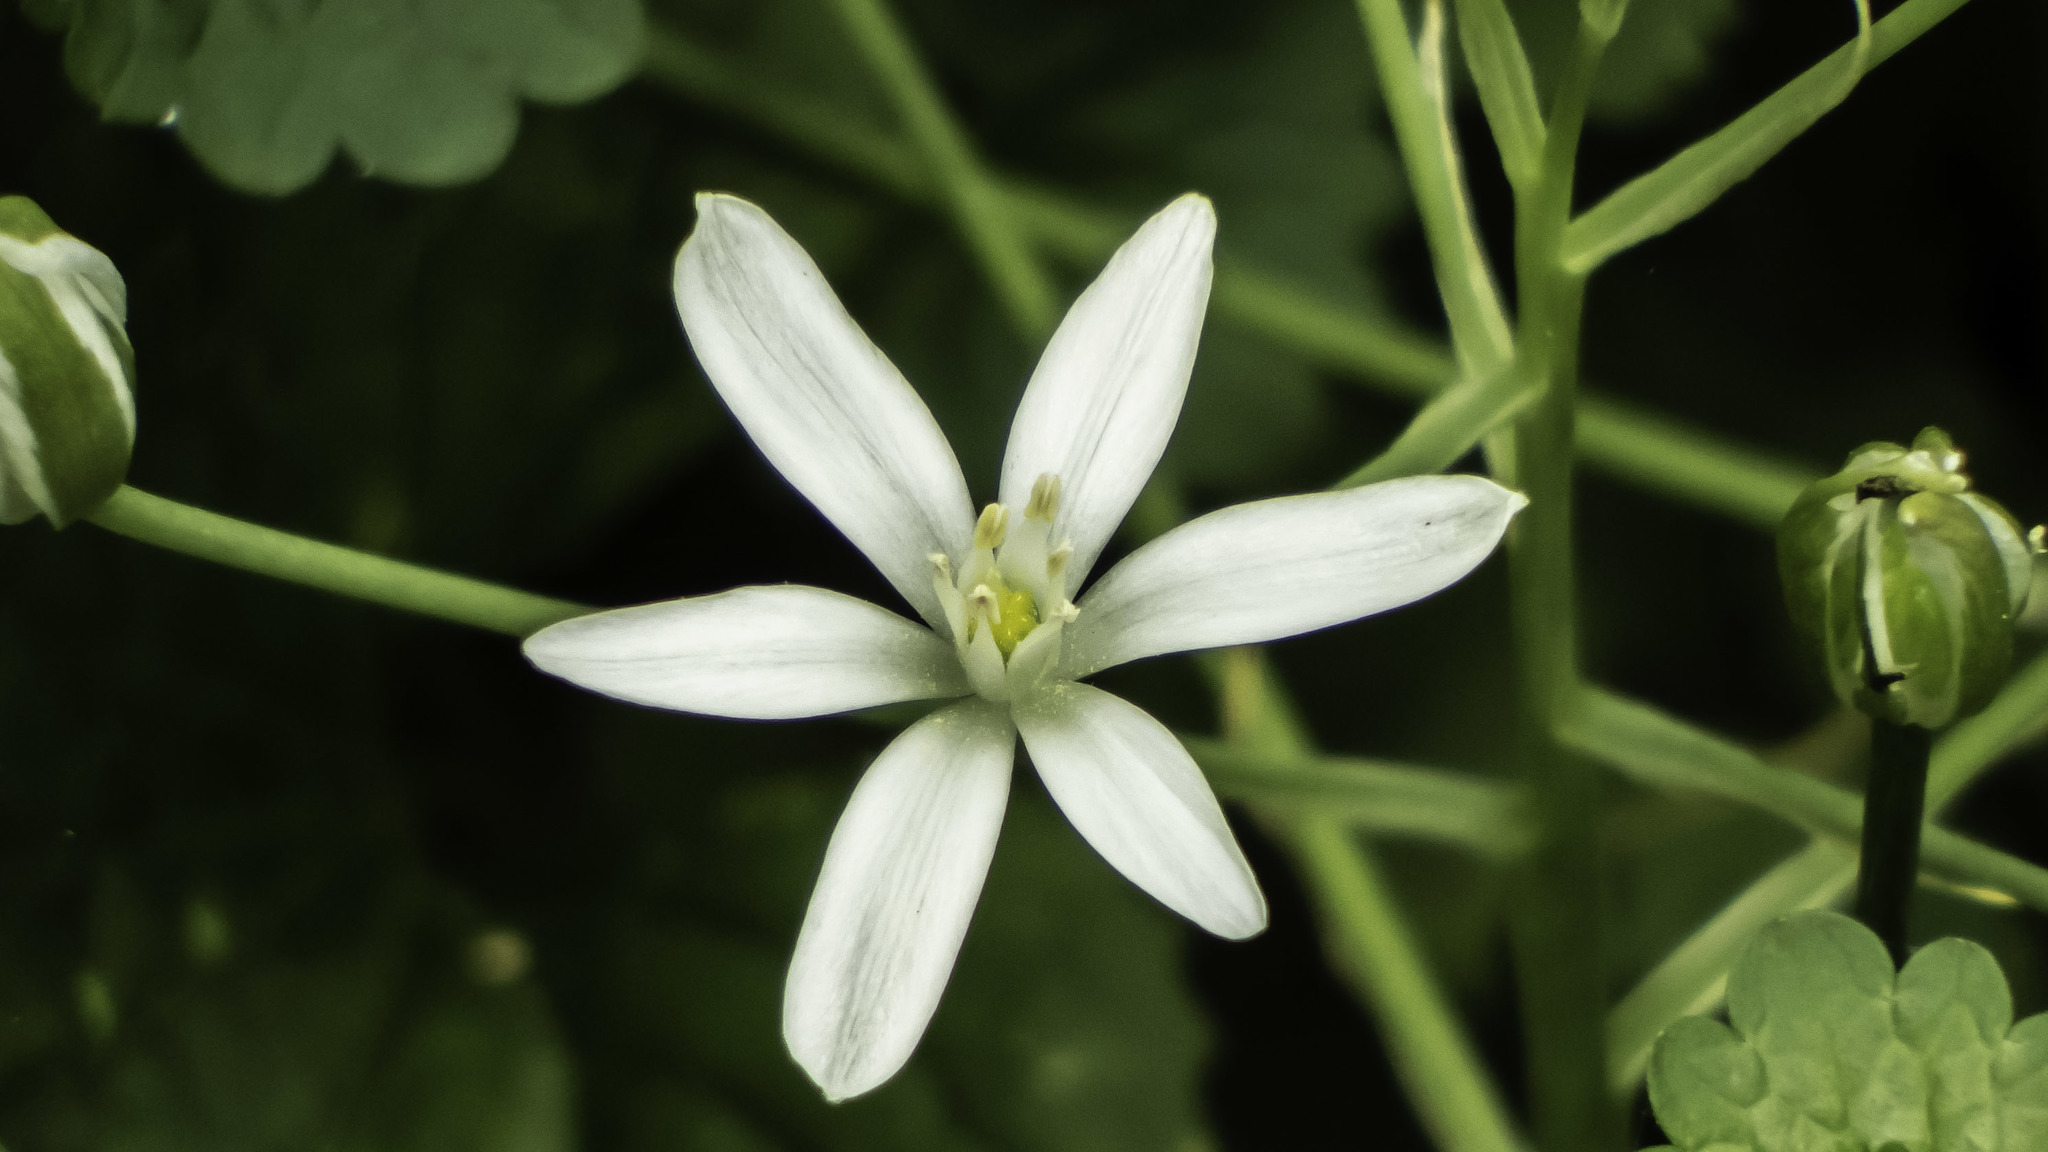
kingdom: Plantae
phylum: Tracheophyta
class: Liliopsida
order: Asparagales
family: Asparagaceae
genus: Ornithogalum
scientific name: Ornithogalum umbellatum
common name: Garden star-of-bethlehem
